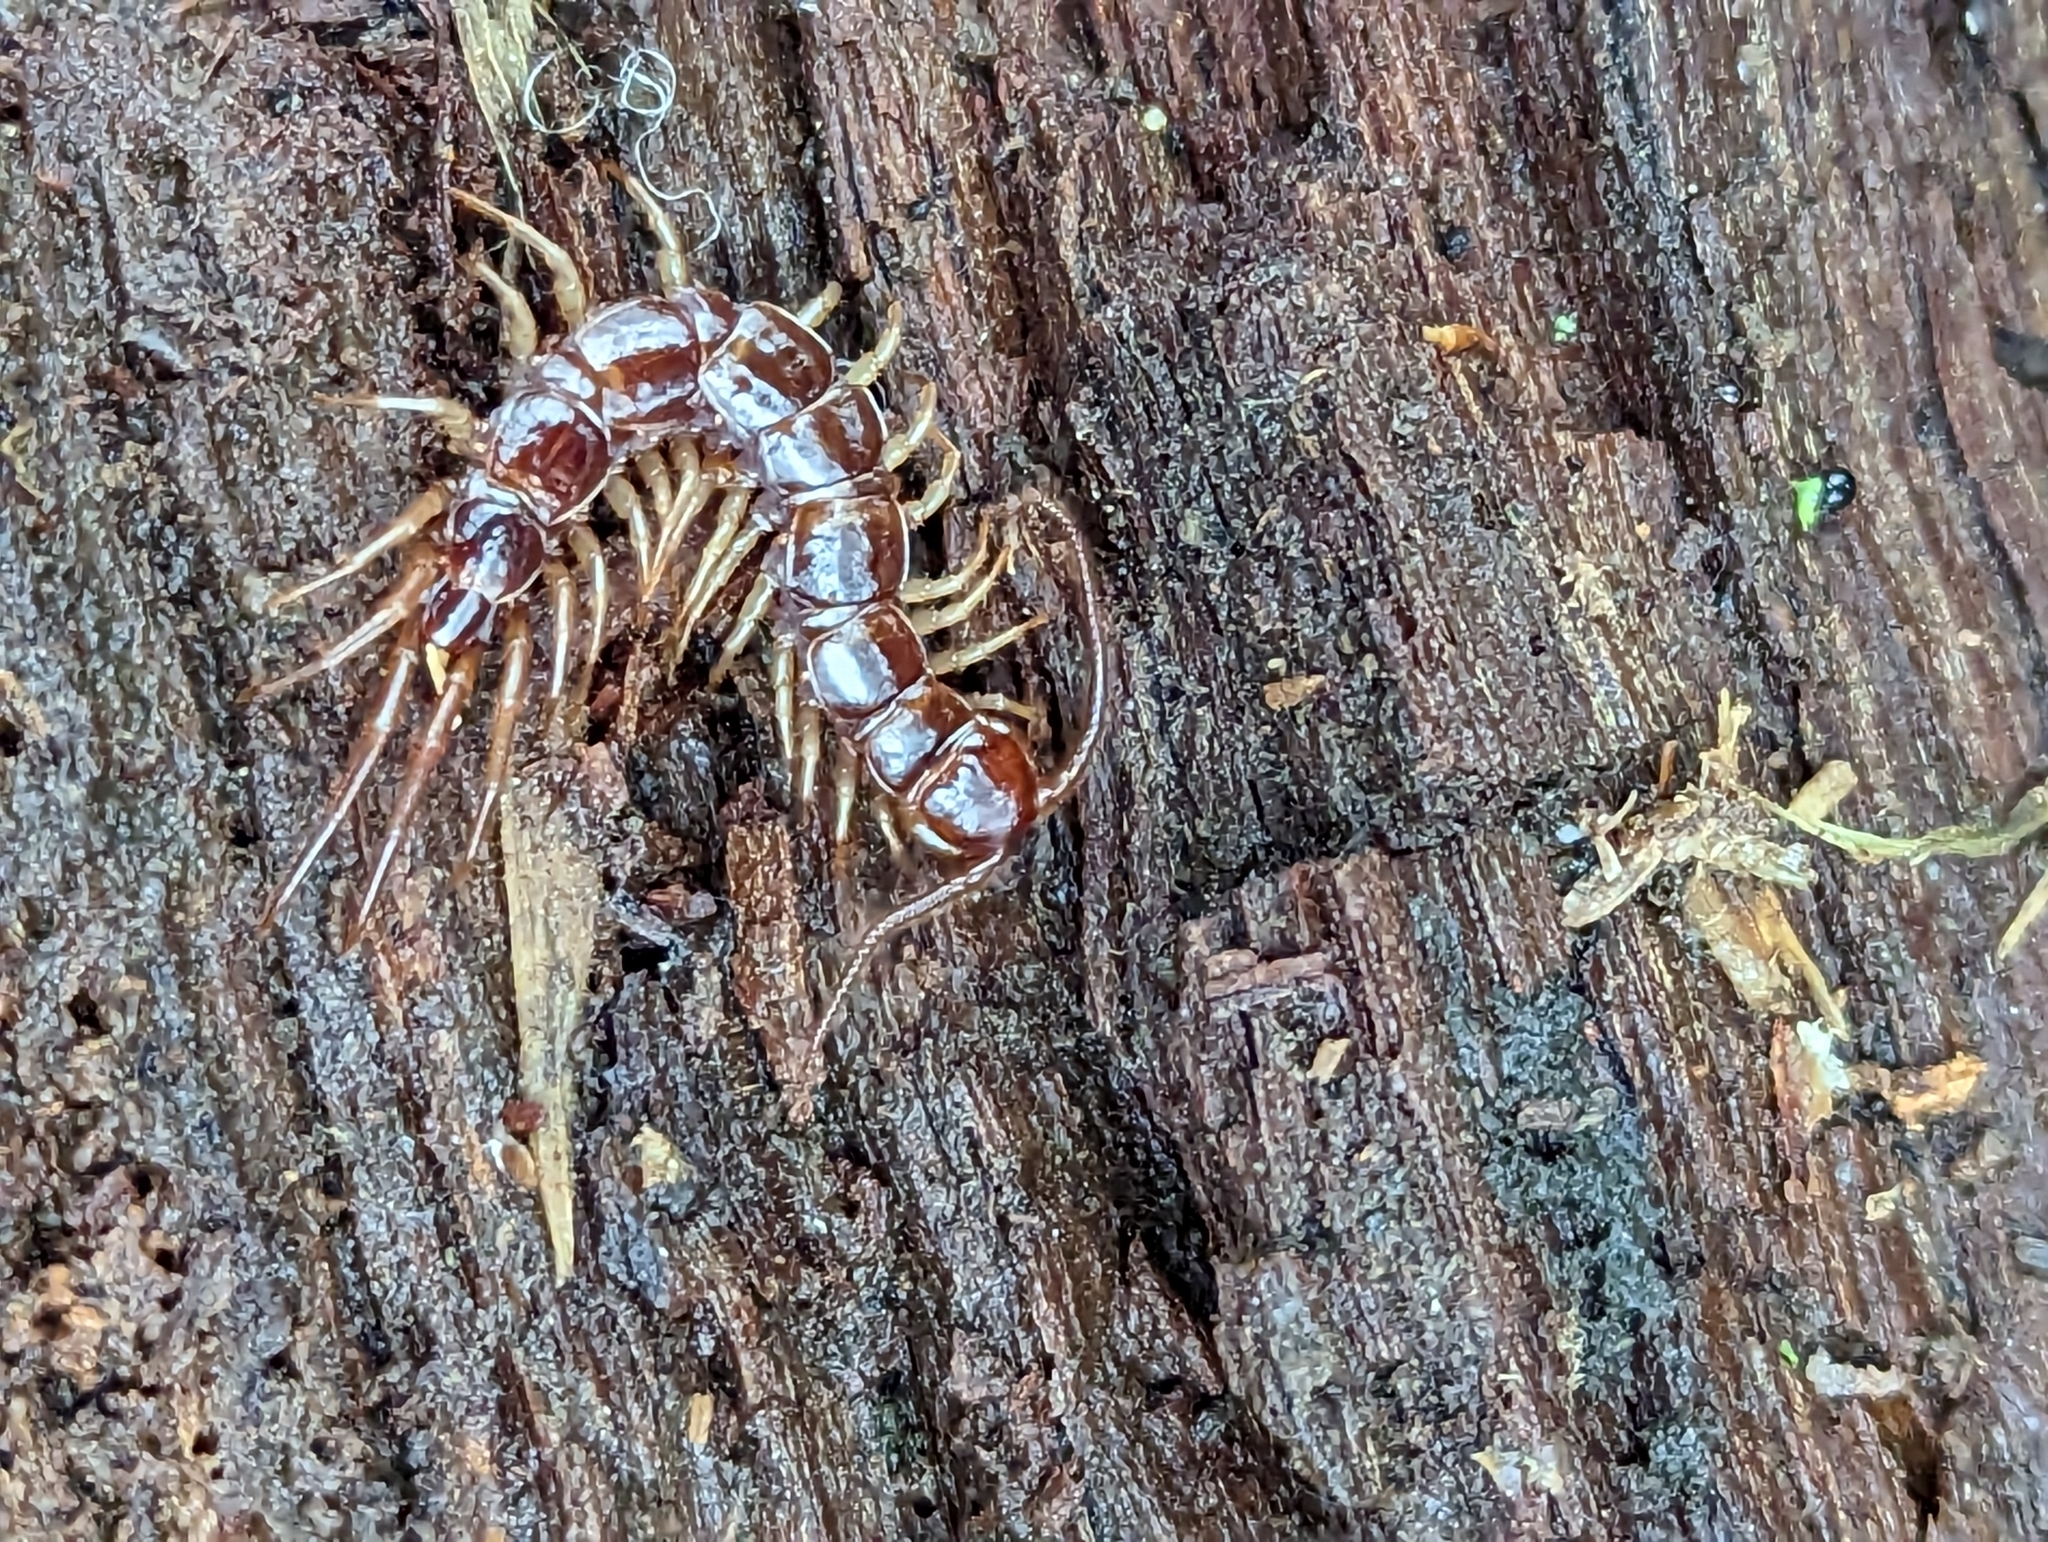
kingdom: Animalia
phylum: Arthropoda
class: Chilopoda
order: Lithobiomorpha
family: Lithobiidae
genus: Lithobius
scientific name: Lithobius forficatus
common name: Centipede
